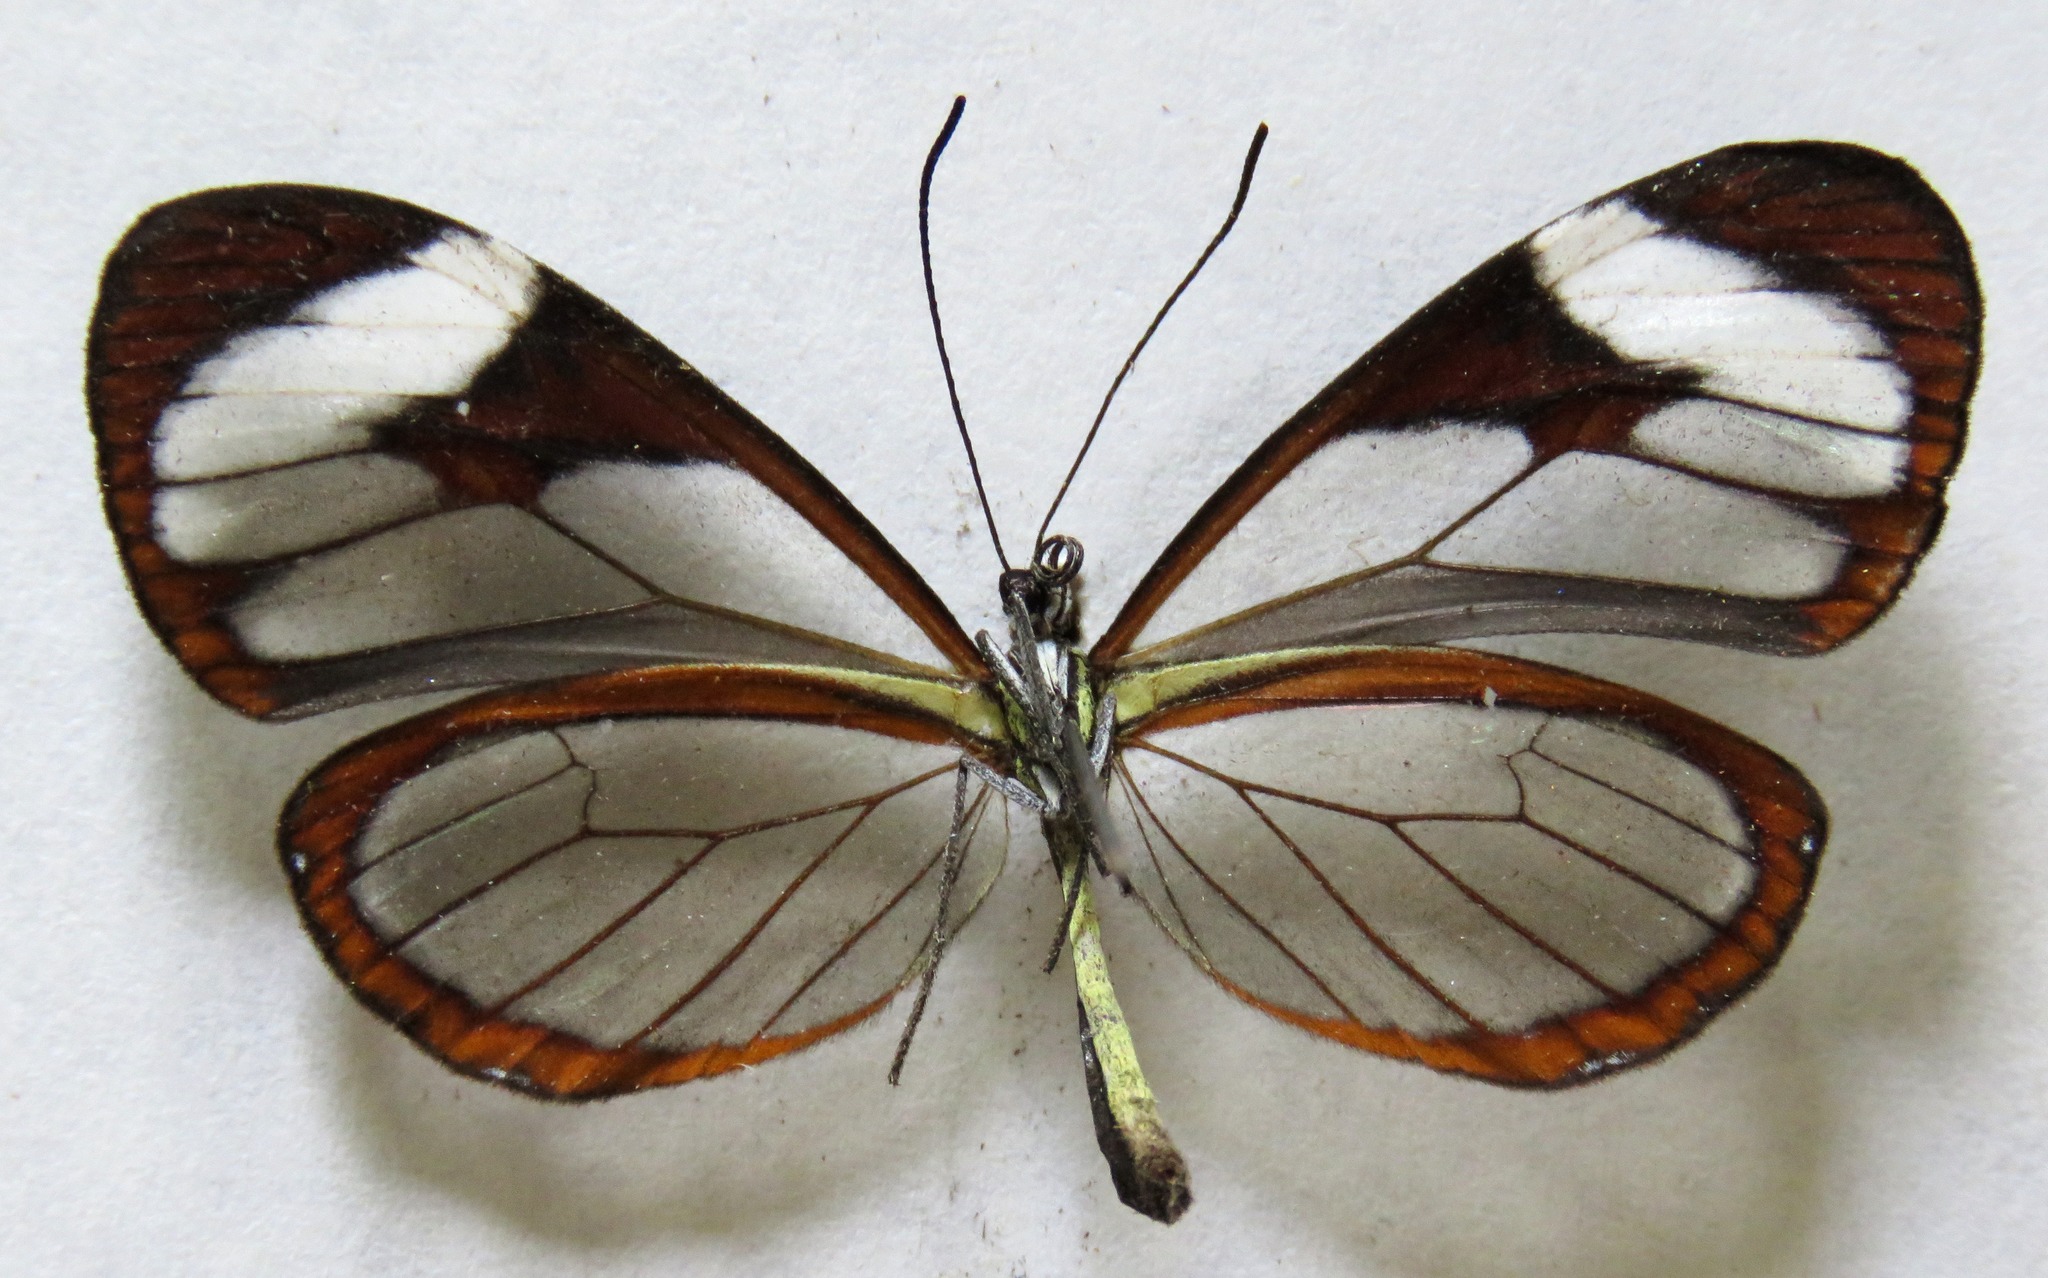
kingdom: Animalia
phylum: Arthropoda
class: Insecta
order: Lepidoptera
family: Nymphalidae
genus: Ithomia
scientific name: Ithomia patilla
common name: Patilla clearwing
